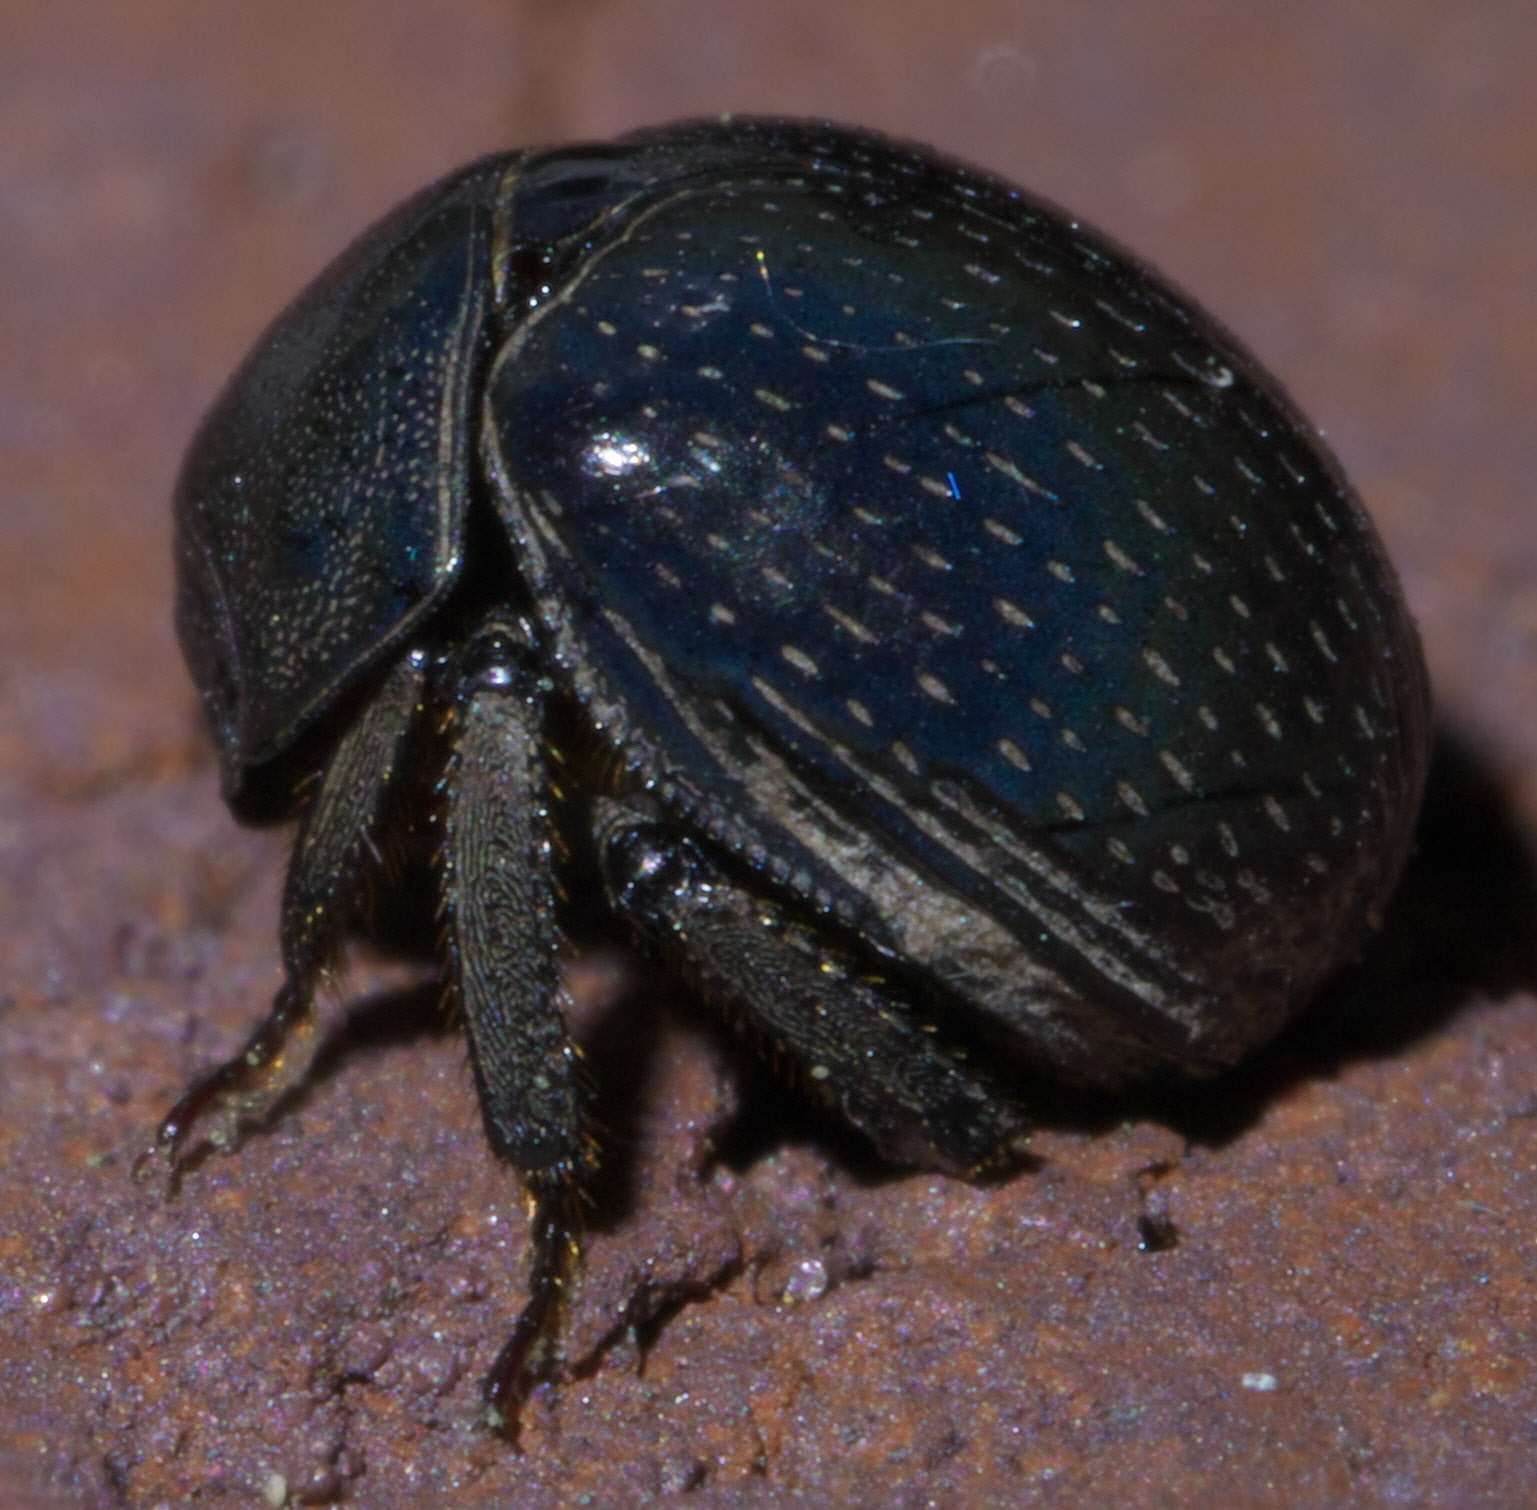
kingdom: Animalia
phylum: Arthropoda
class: Insecta
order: Coleoptera
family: Hybosoridae
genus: Germarostes
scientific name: Germarostes globosus
